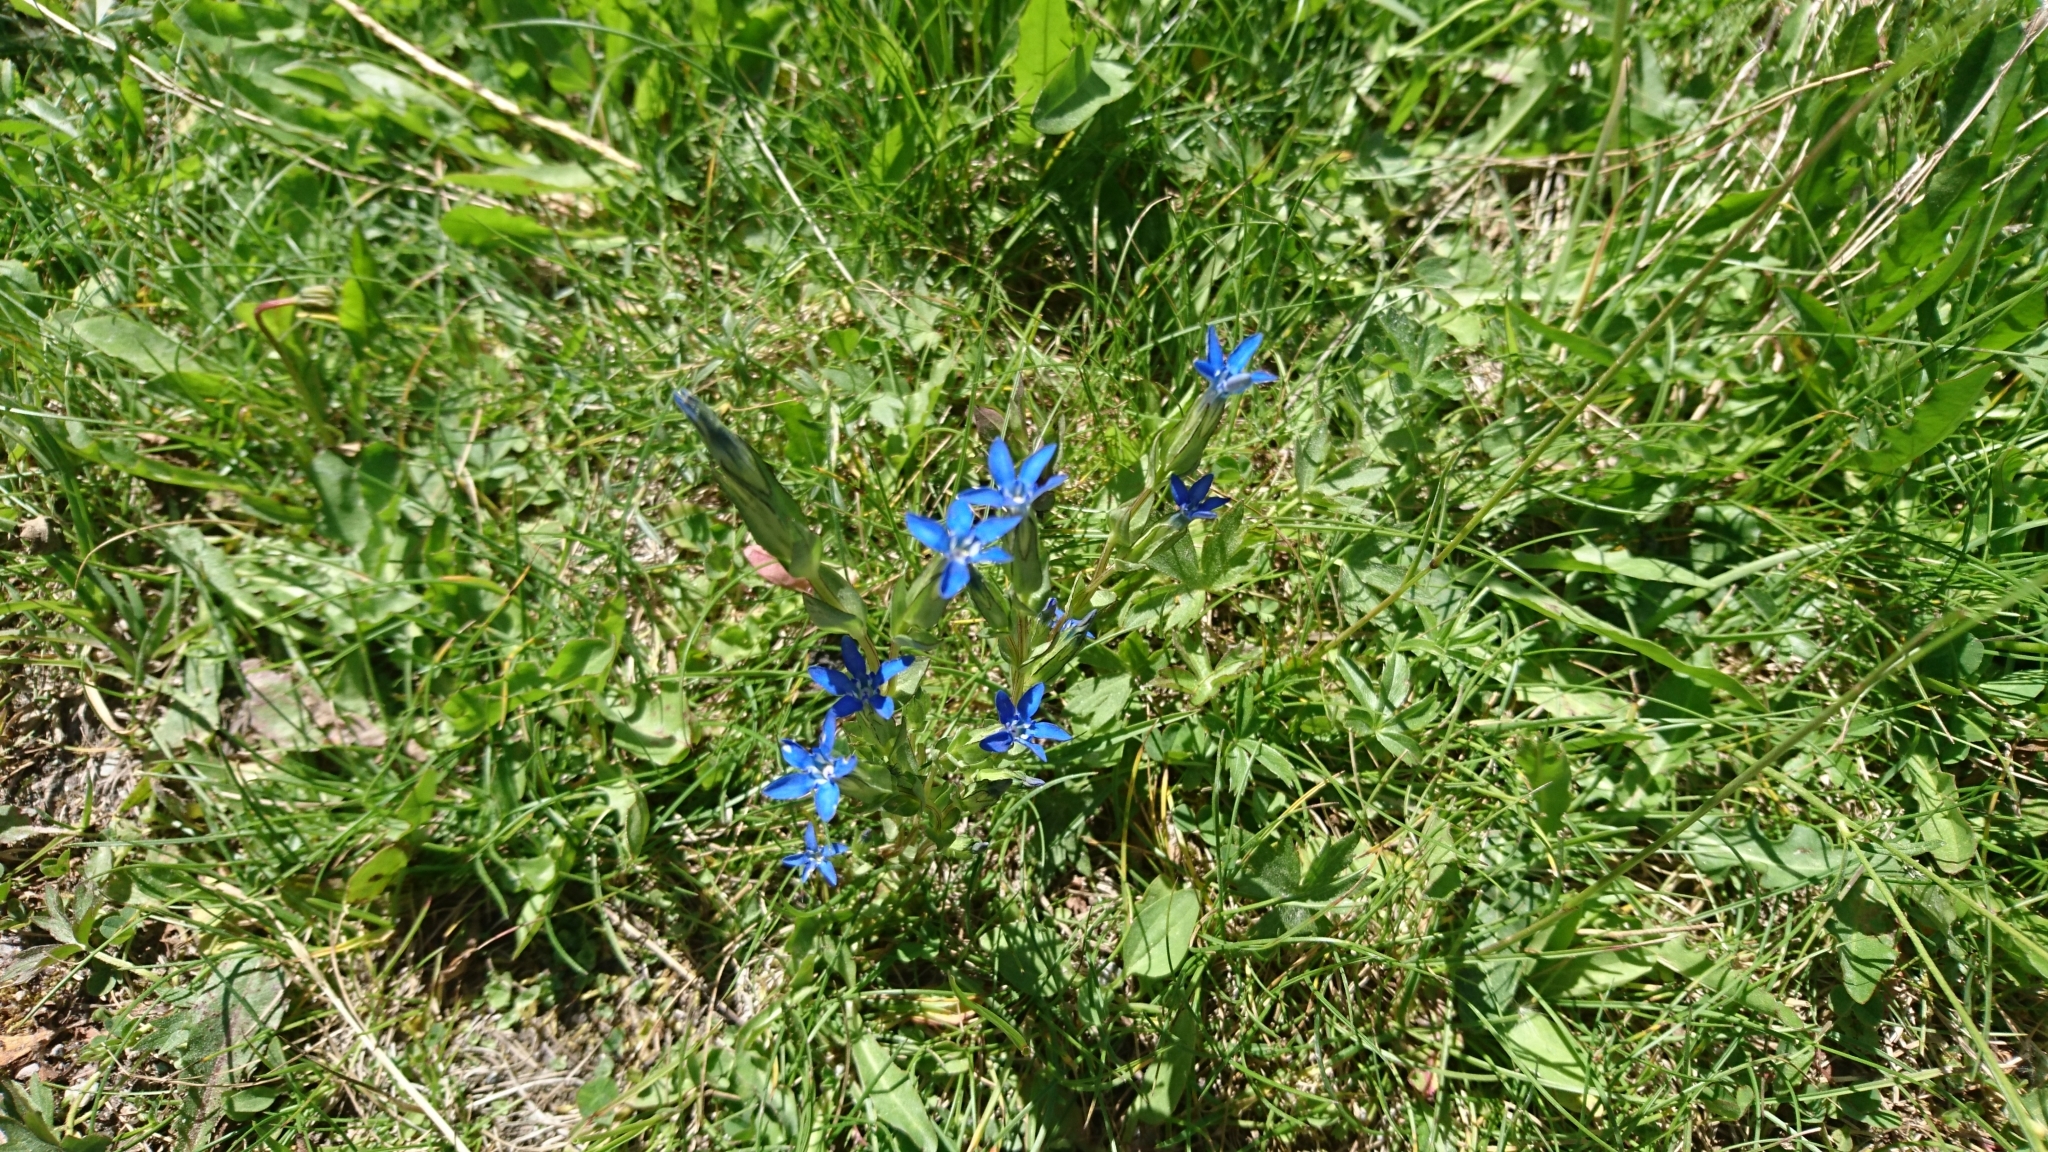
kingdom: Plantae
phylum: Tracheophyta
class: Magnoliopsida
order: Gentianales
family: Gentianaceae
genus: Gentiana
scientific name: Gentiana nivalis
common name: Alpine gentian
